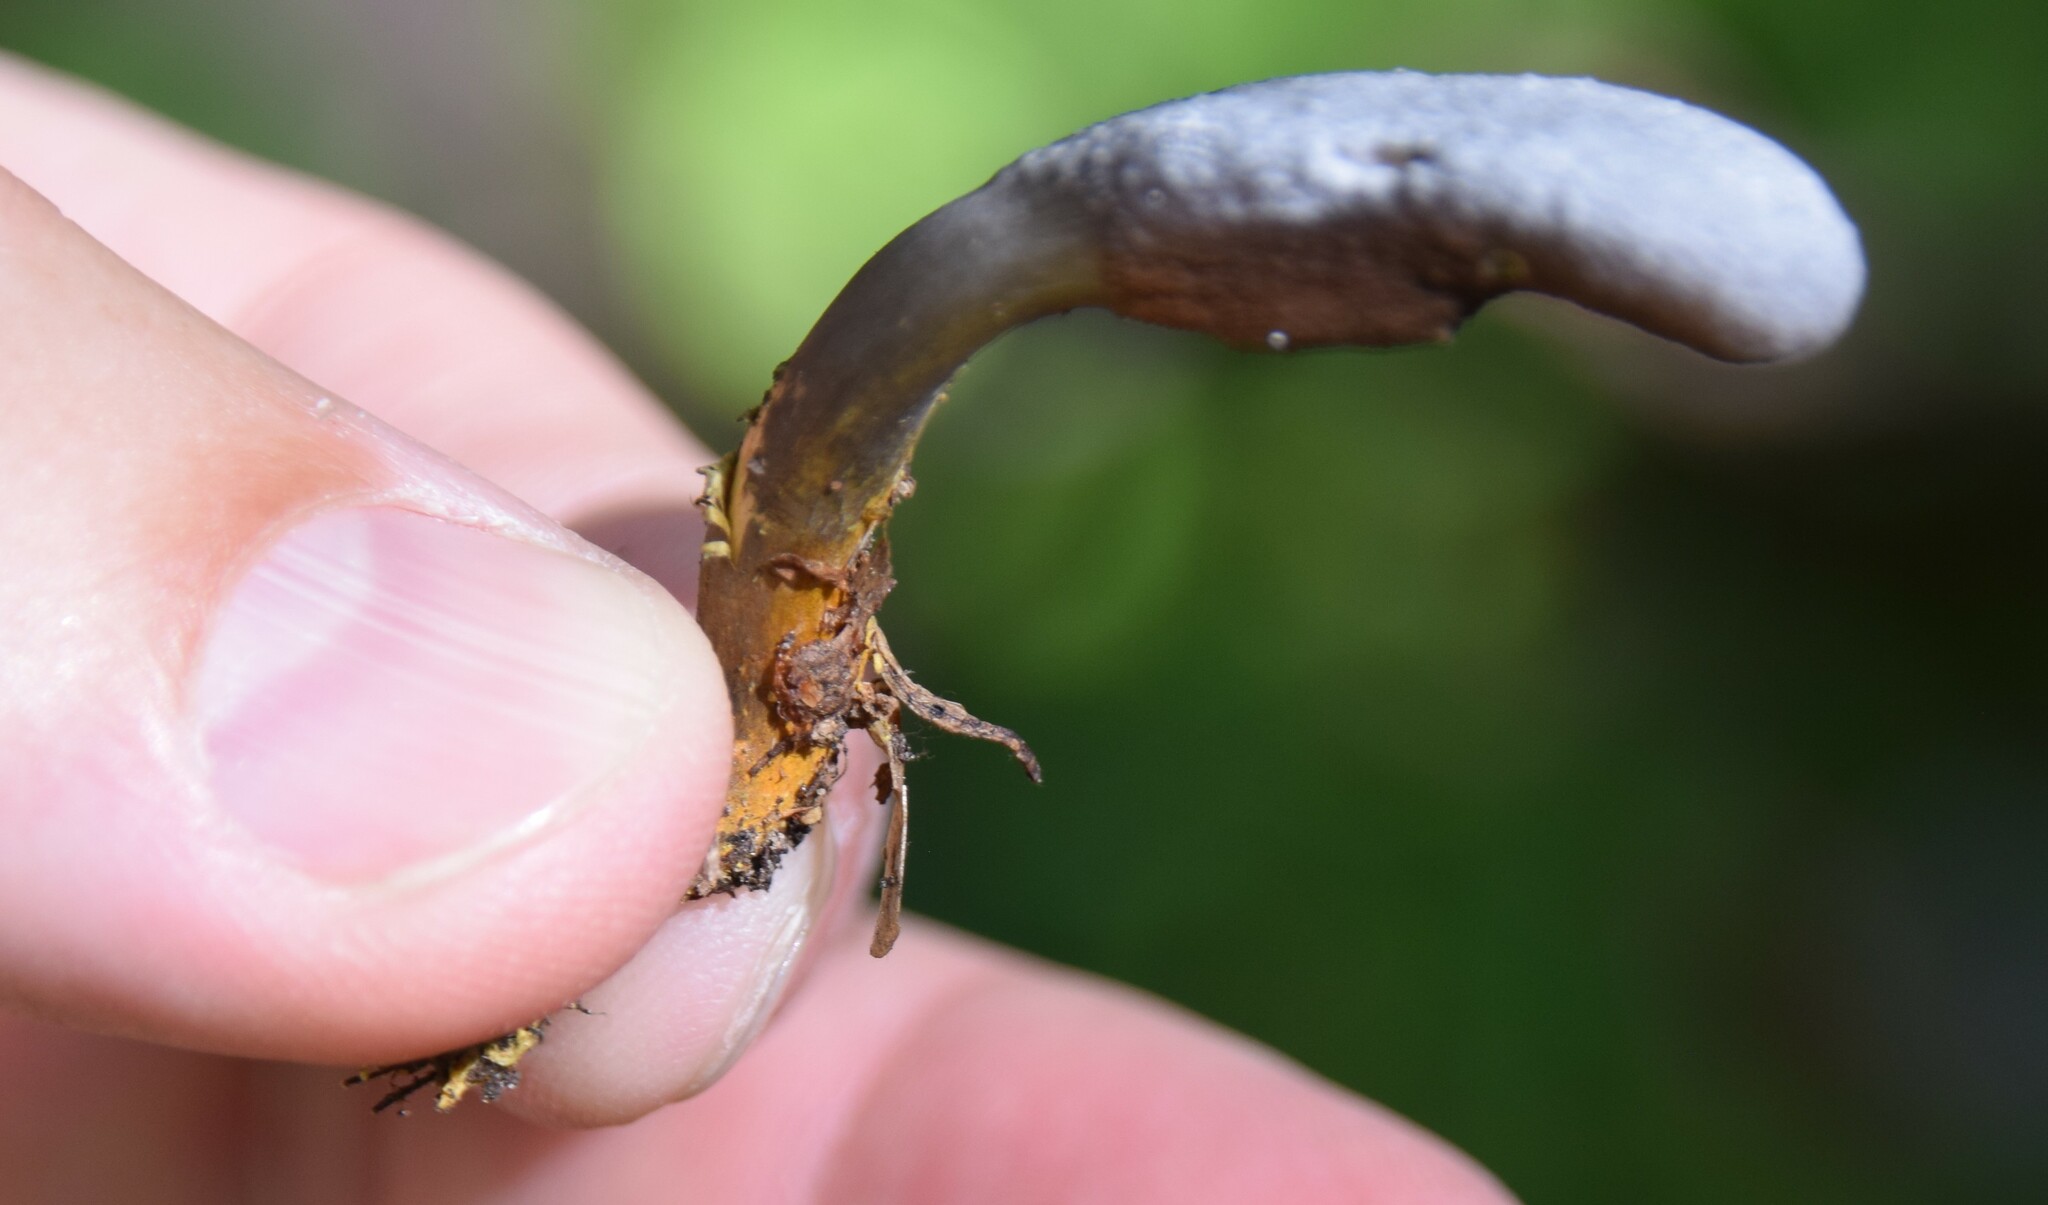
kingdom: Fungi
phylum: Ascomycota
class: Sordariomycetes
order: Hypocreales
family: Ophiocordycipitaceae
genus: Tolypocladium
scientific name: Tolypocladium ophioglossoides
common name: Snaketongue truffleclub
